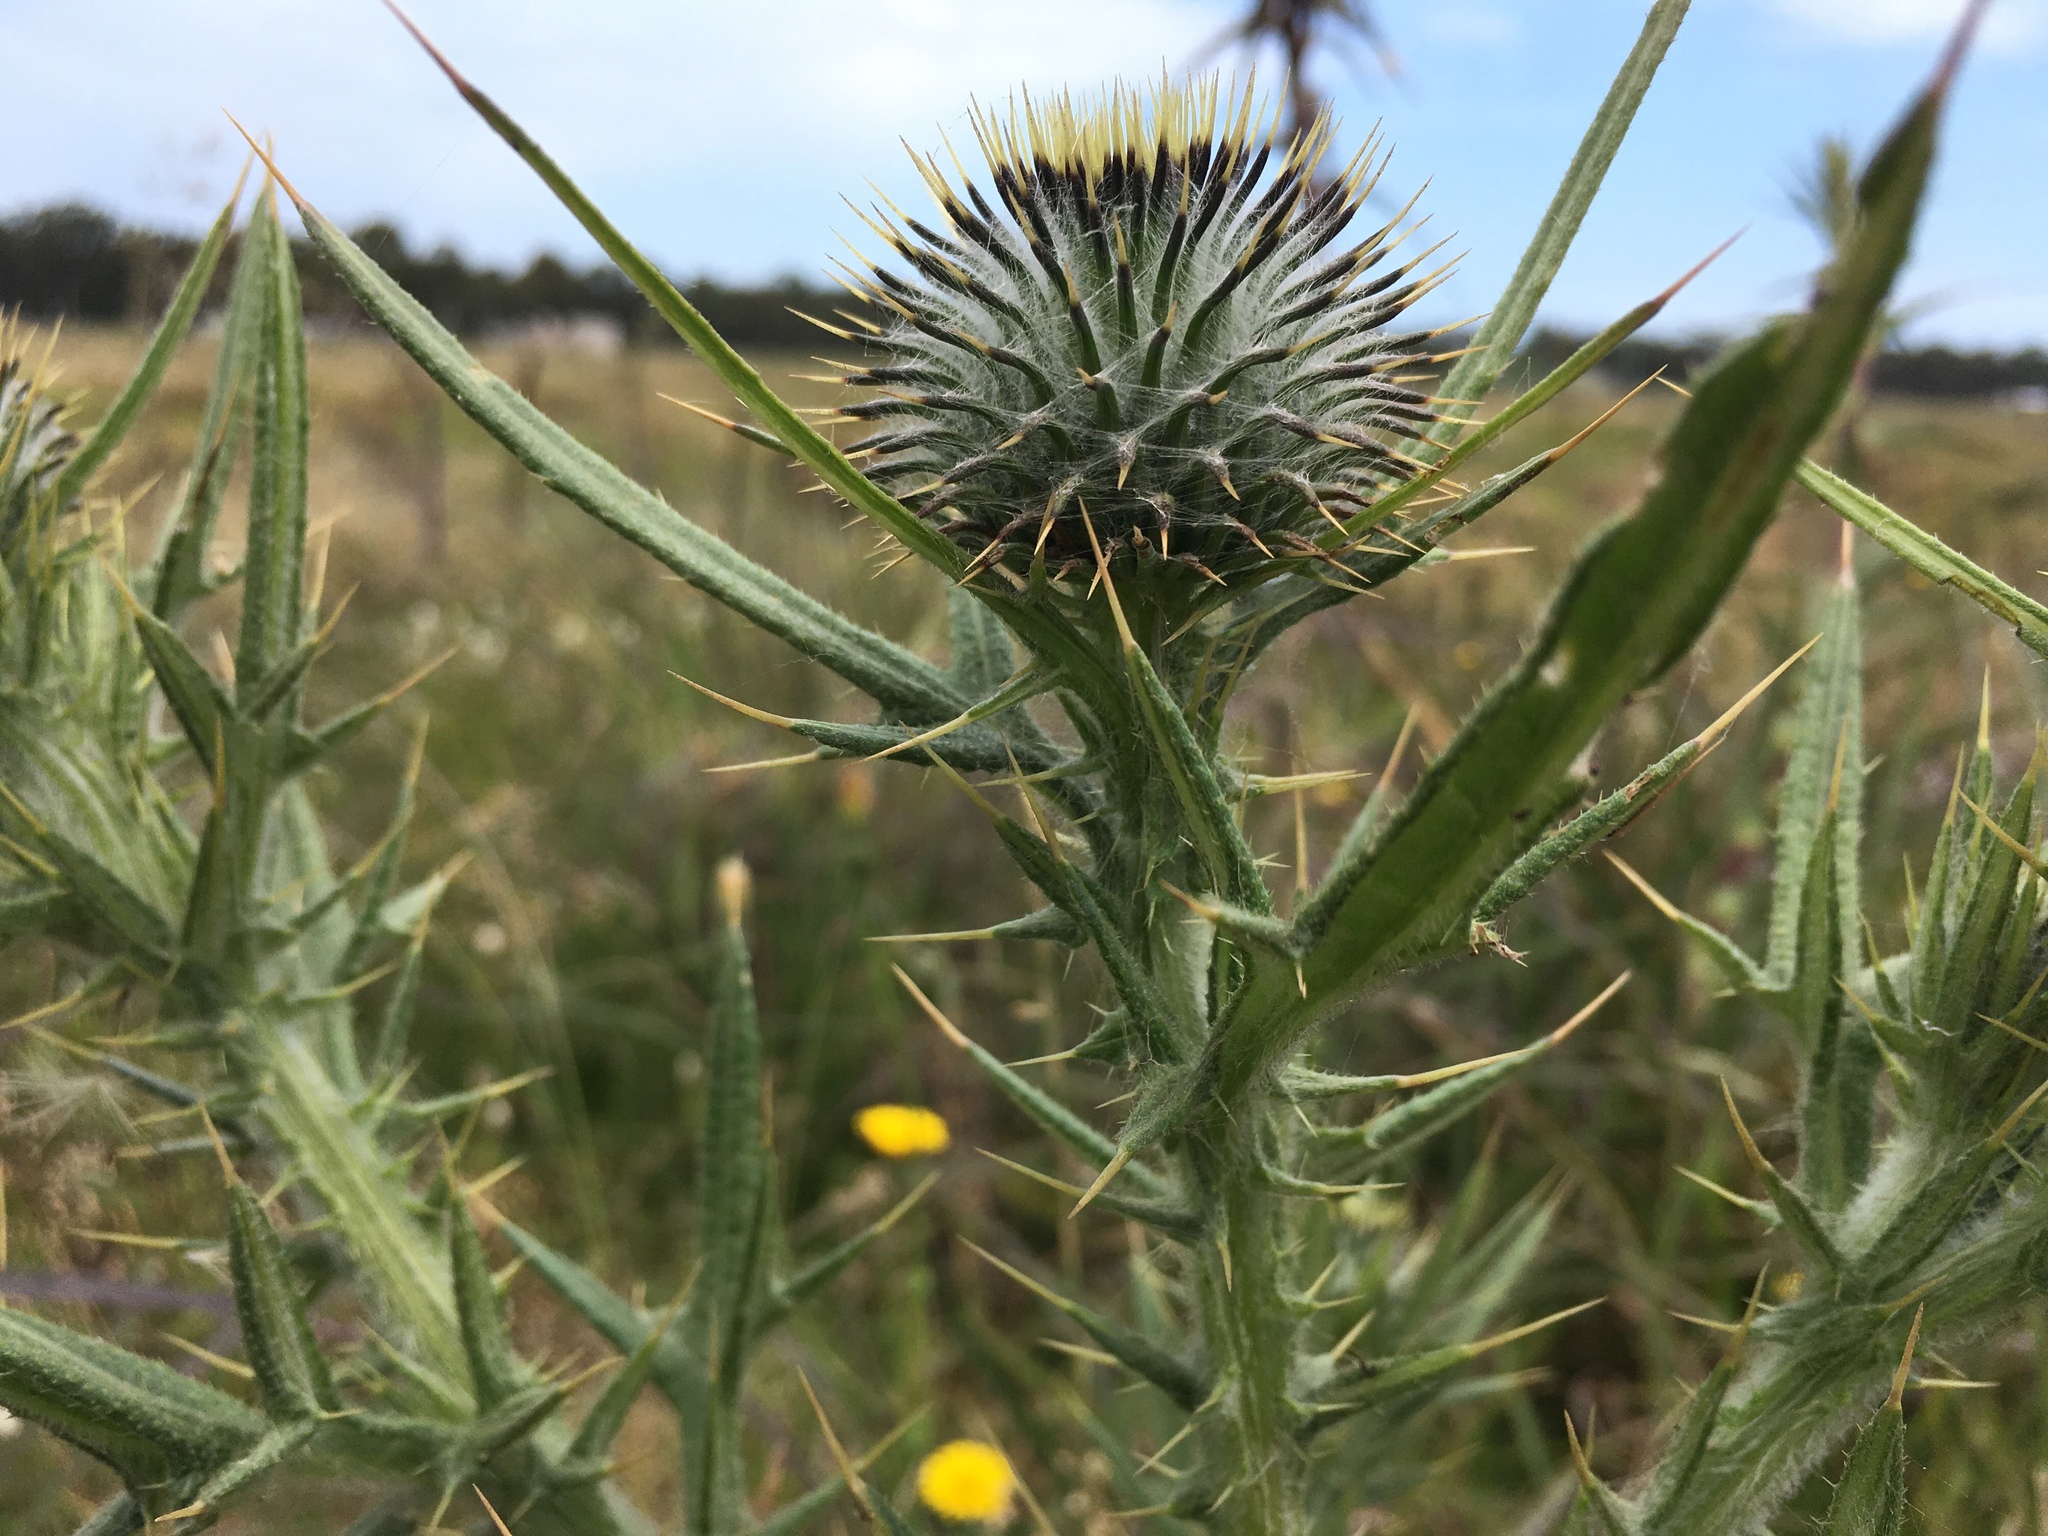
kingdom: Plantae
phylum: Tracheophyta
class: Magnoliopsida
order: Asterales
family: Asteraceae
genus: Cirsium
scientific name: Cirsium vulgare
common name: Bull thistle
